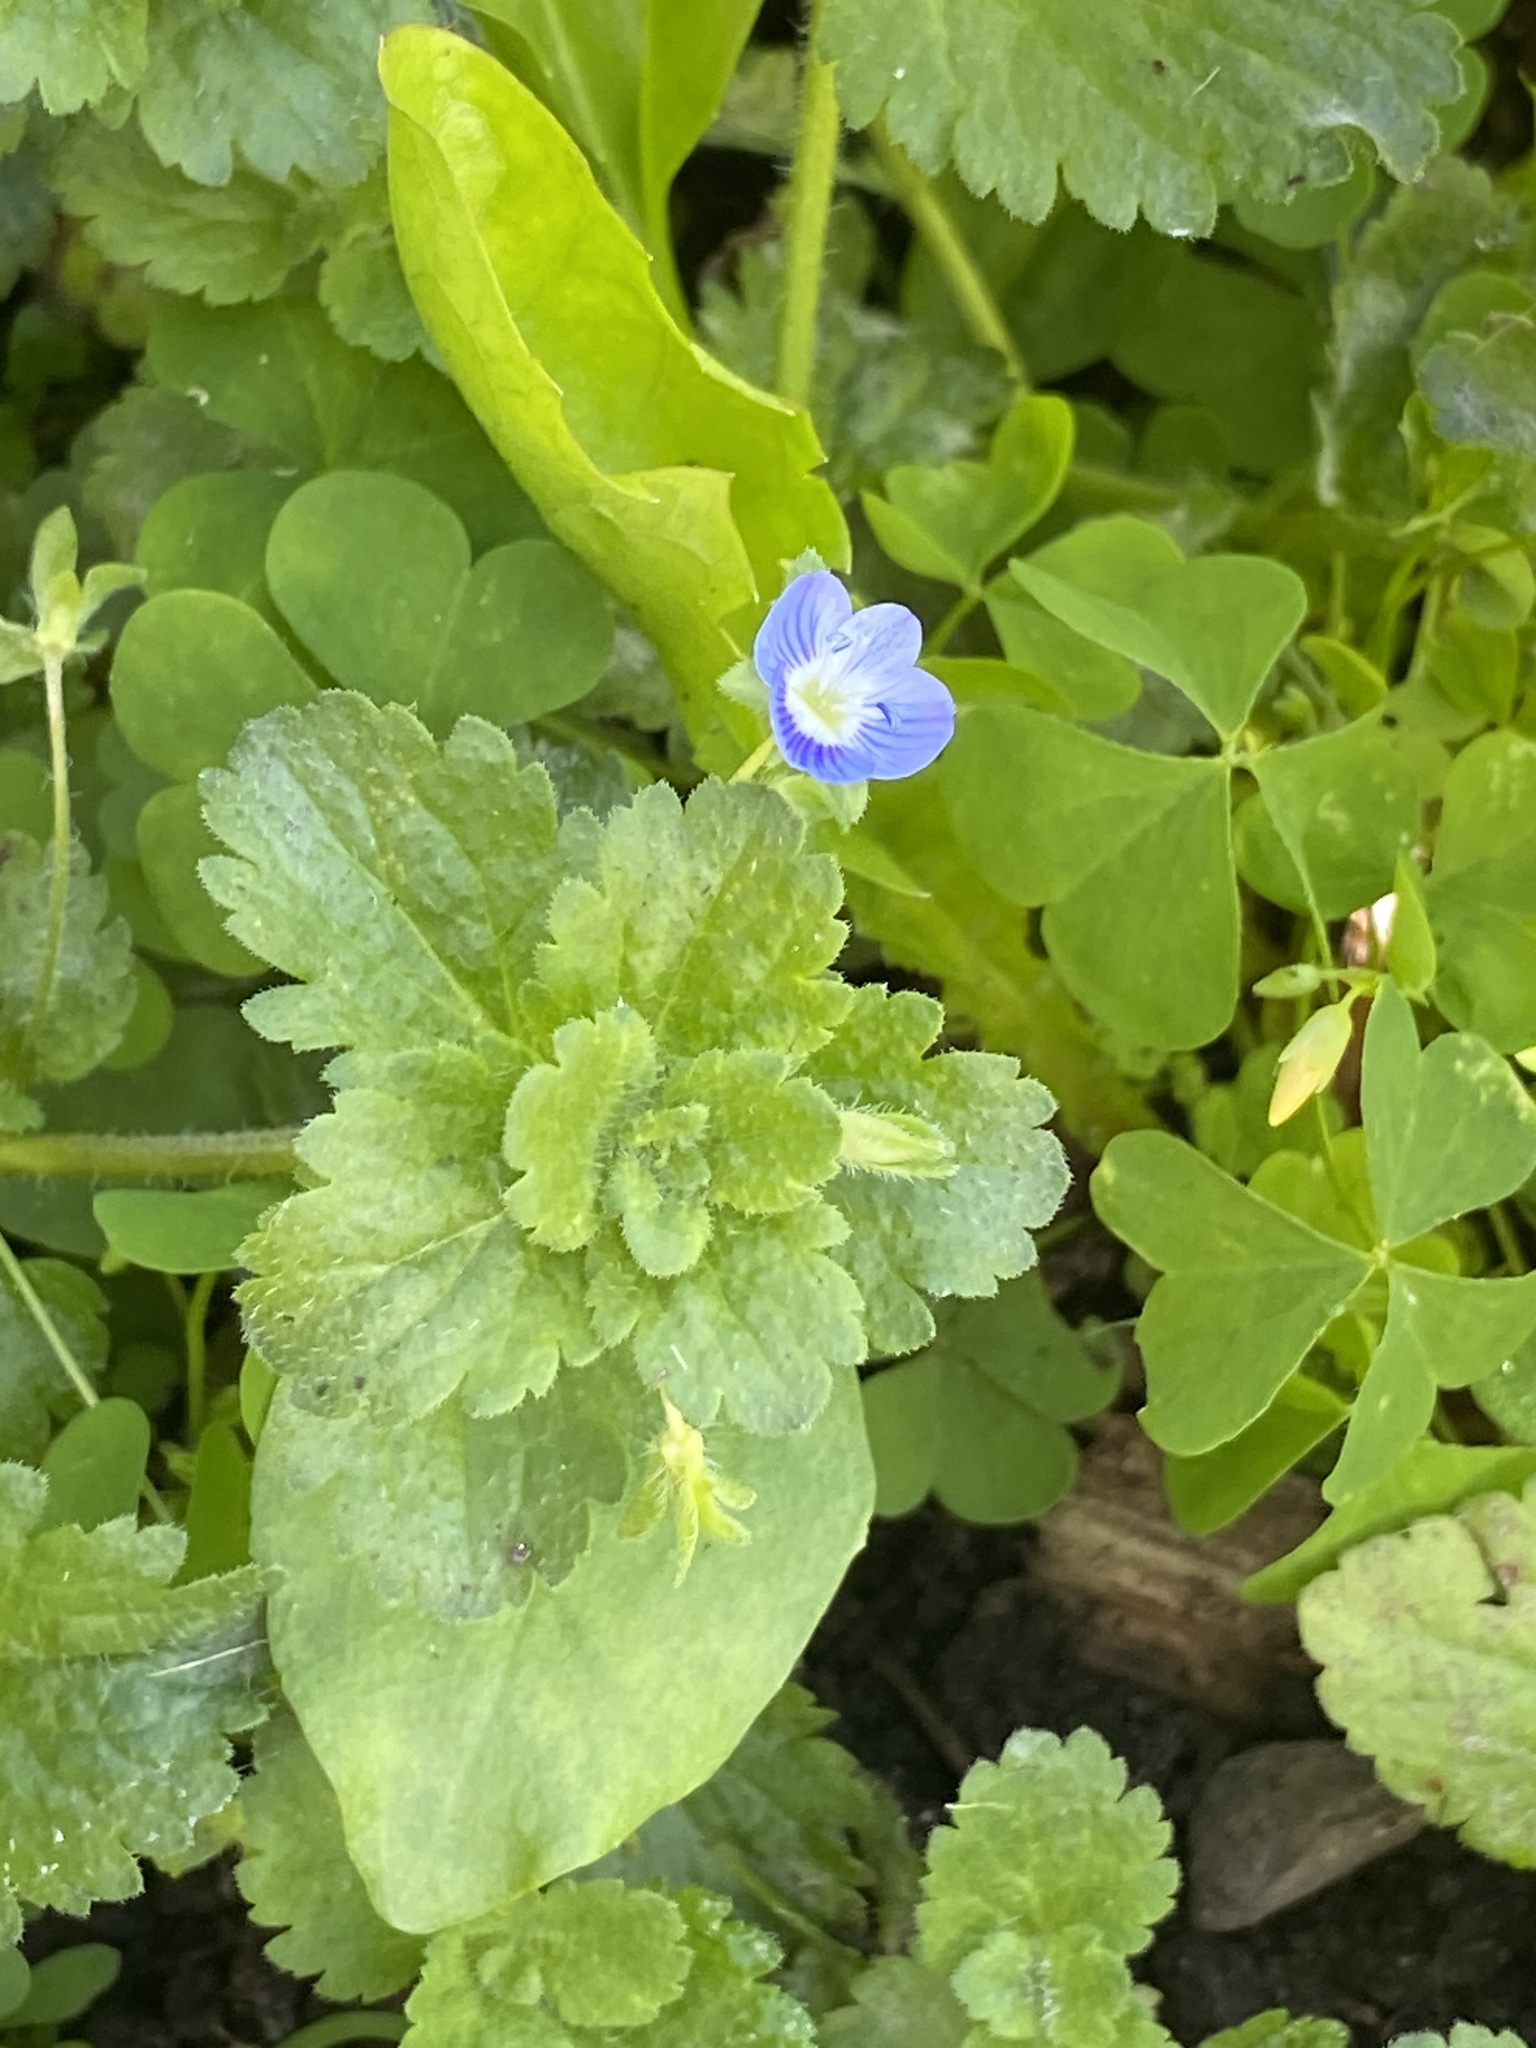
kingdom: Plantae
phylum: Tracheophyta
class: Magnoliopsida
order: Lamiales
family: Plantaginaceae
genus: Veronica
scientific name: Veronica persica
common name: Common field-speedwell
